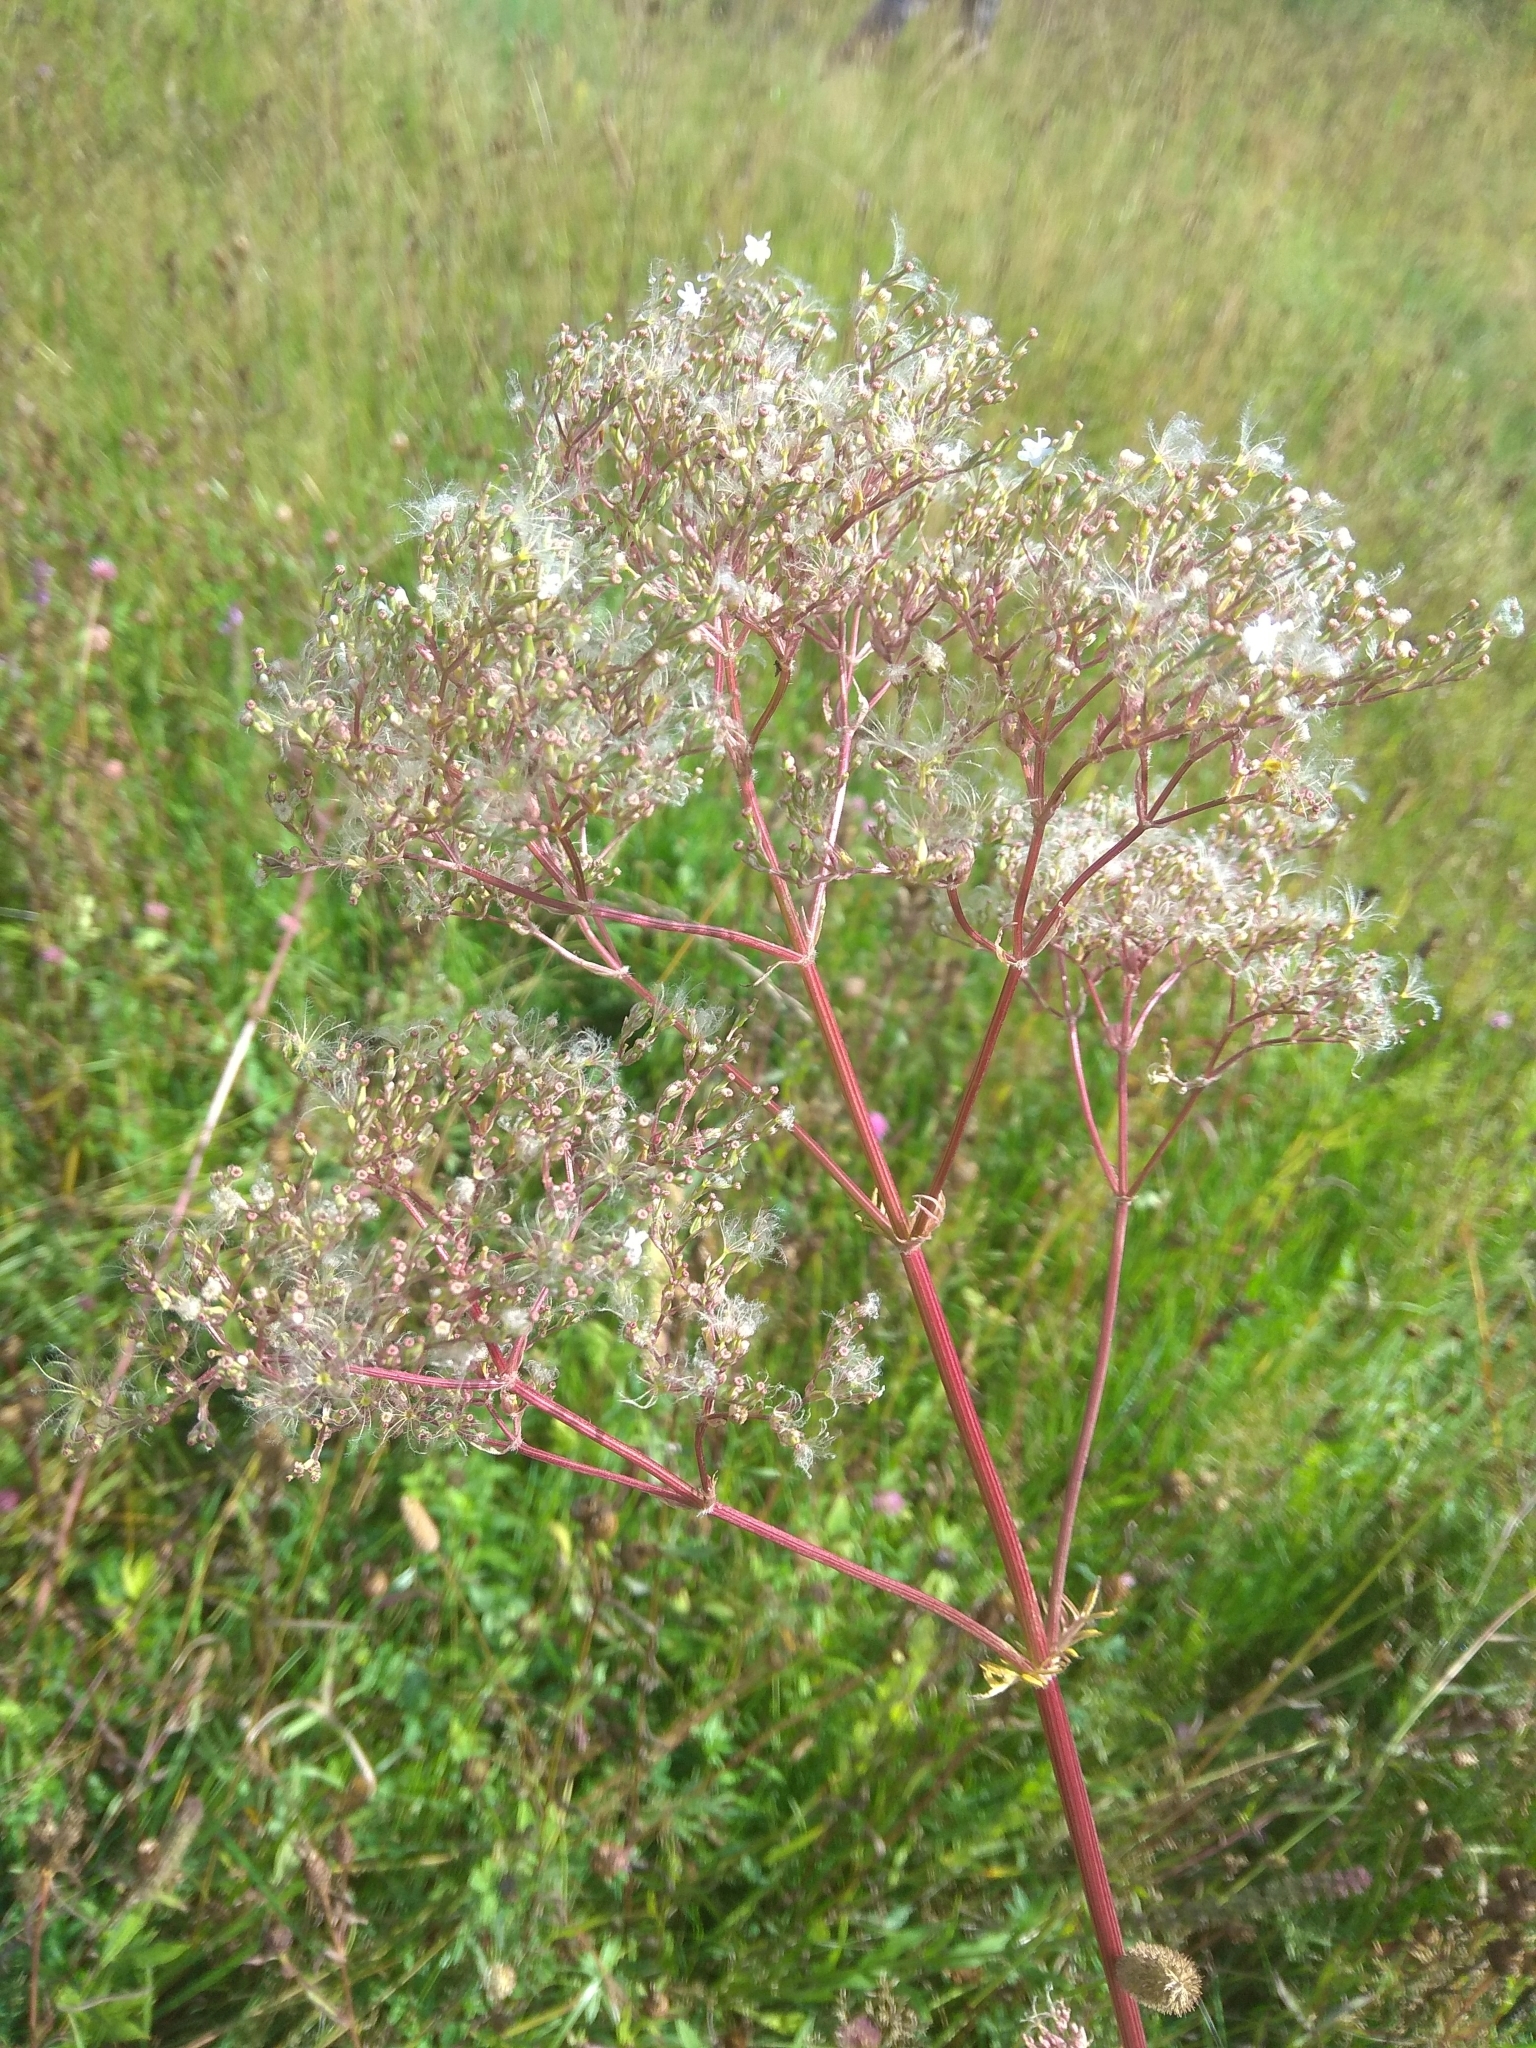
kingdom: Plantae
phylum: Tracheophyta
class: Magnoliopsida
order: Dipsacales
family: Caprifoliaceae
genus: Valeriana
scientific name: Valeriana officinalis
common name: Common valerian
